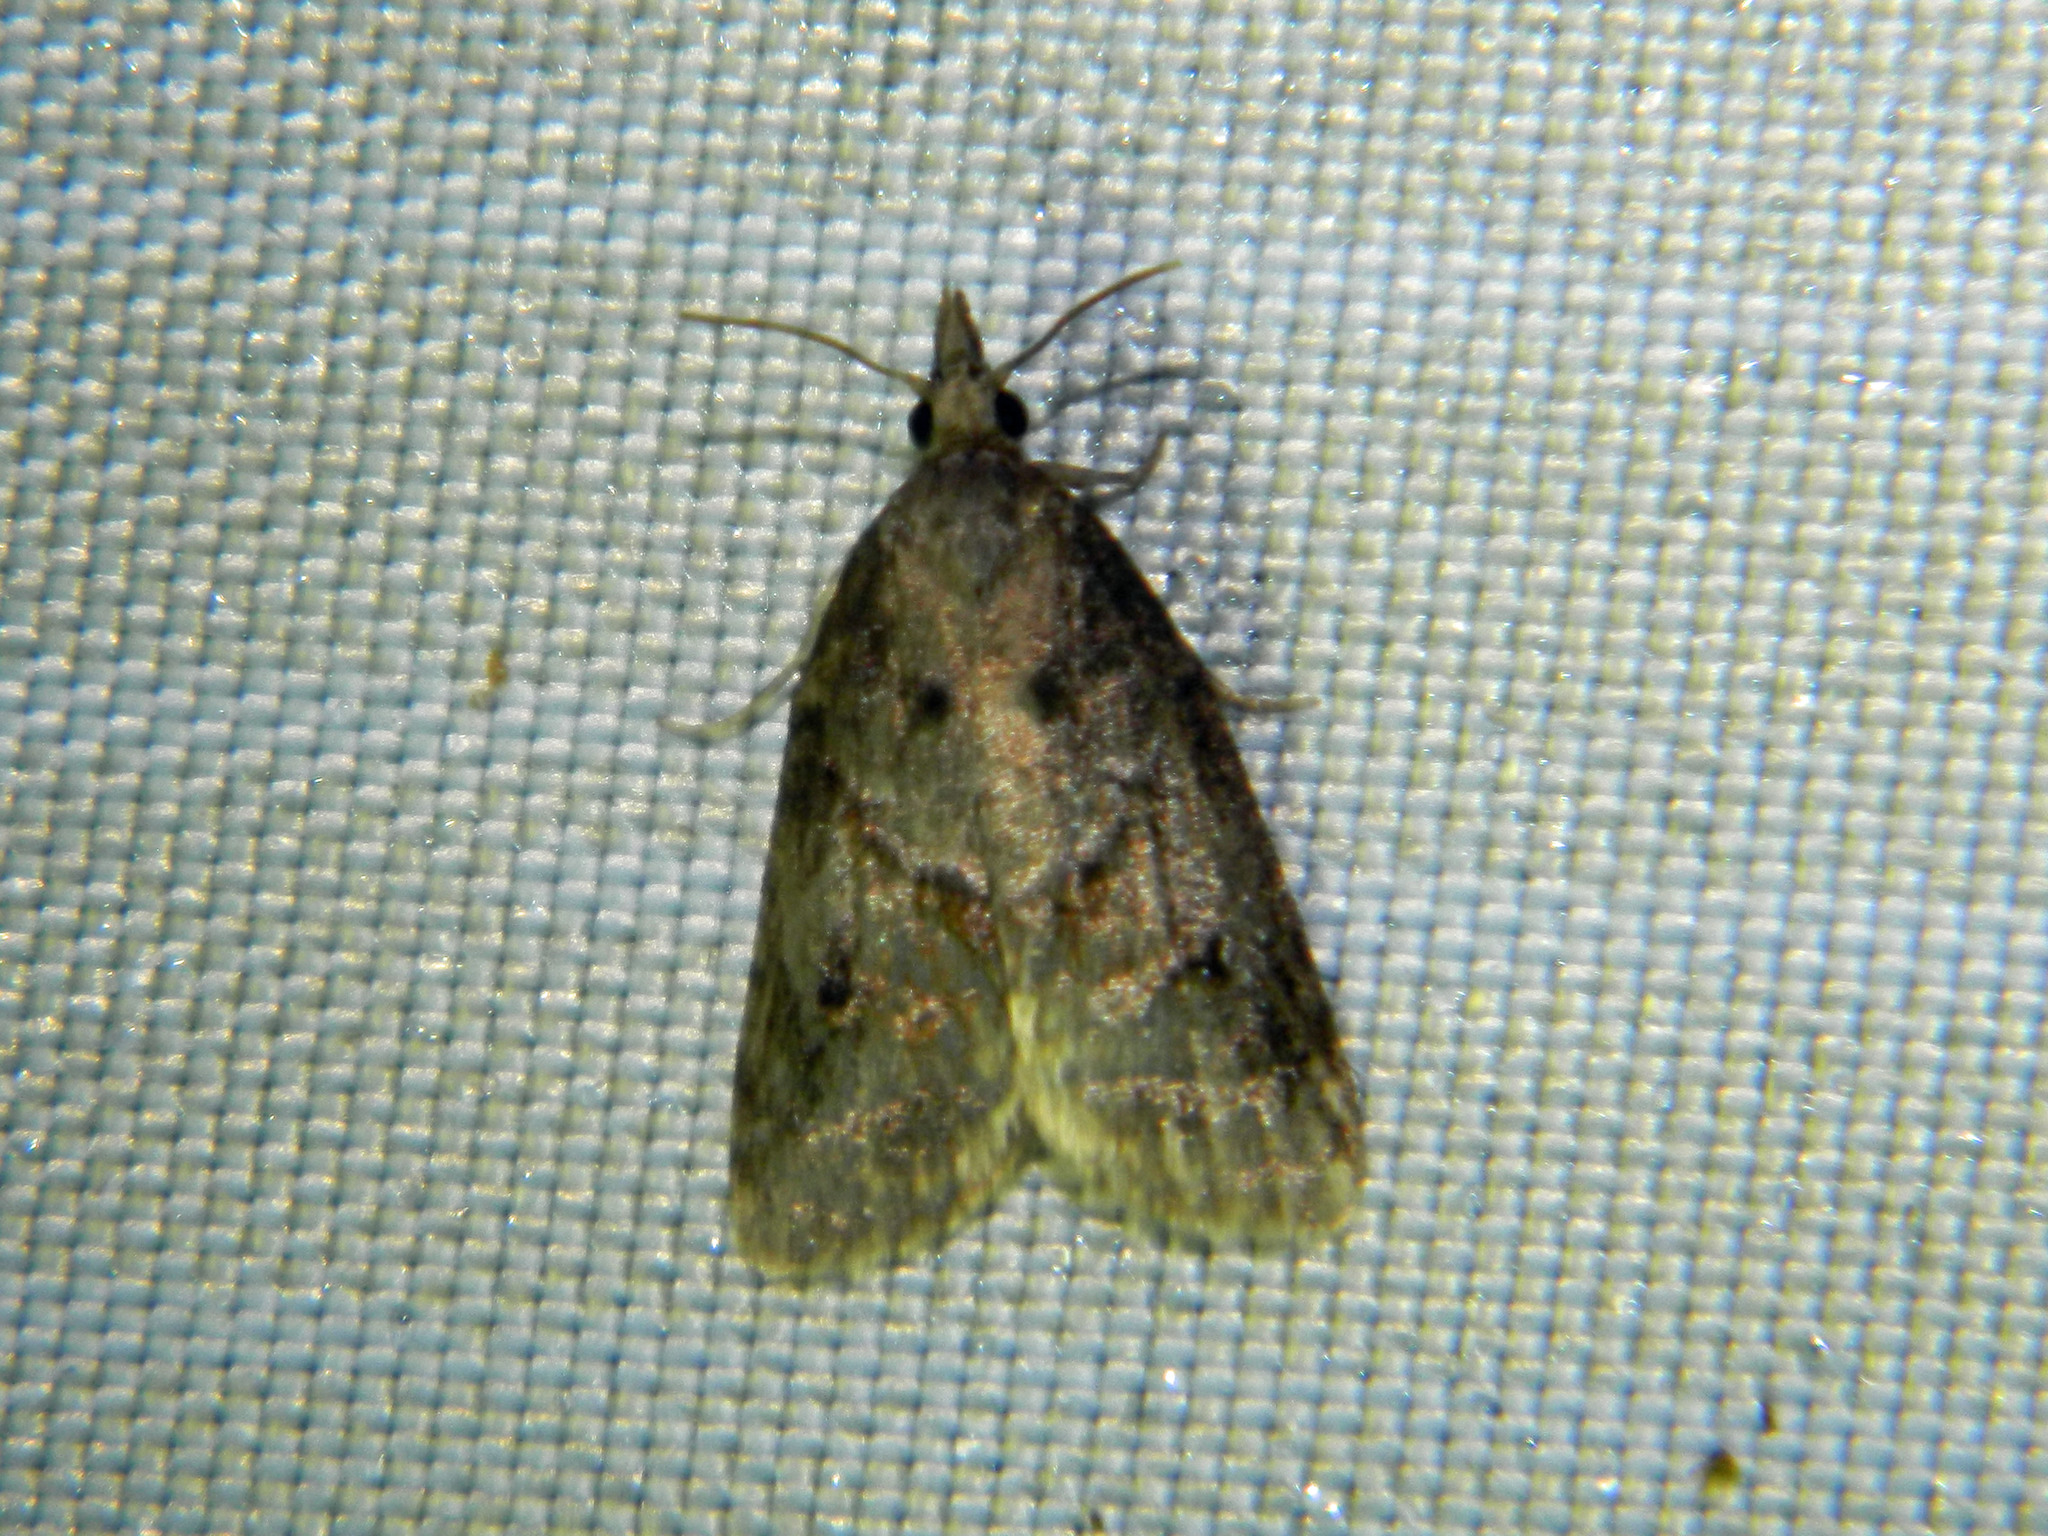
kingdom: Animalia
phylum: Arthropoda
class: Insecta
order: Lepidoptera
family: Tortricidae
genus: Platynota
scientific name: Platynota idaeusalis
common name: Tufted apple bud moth
